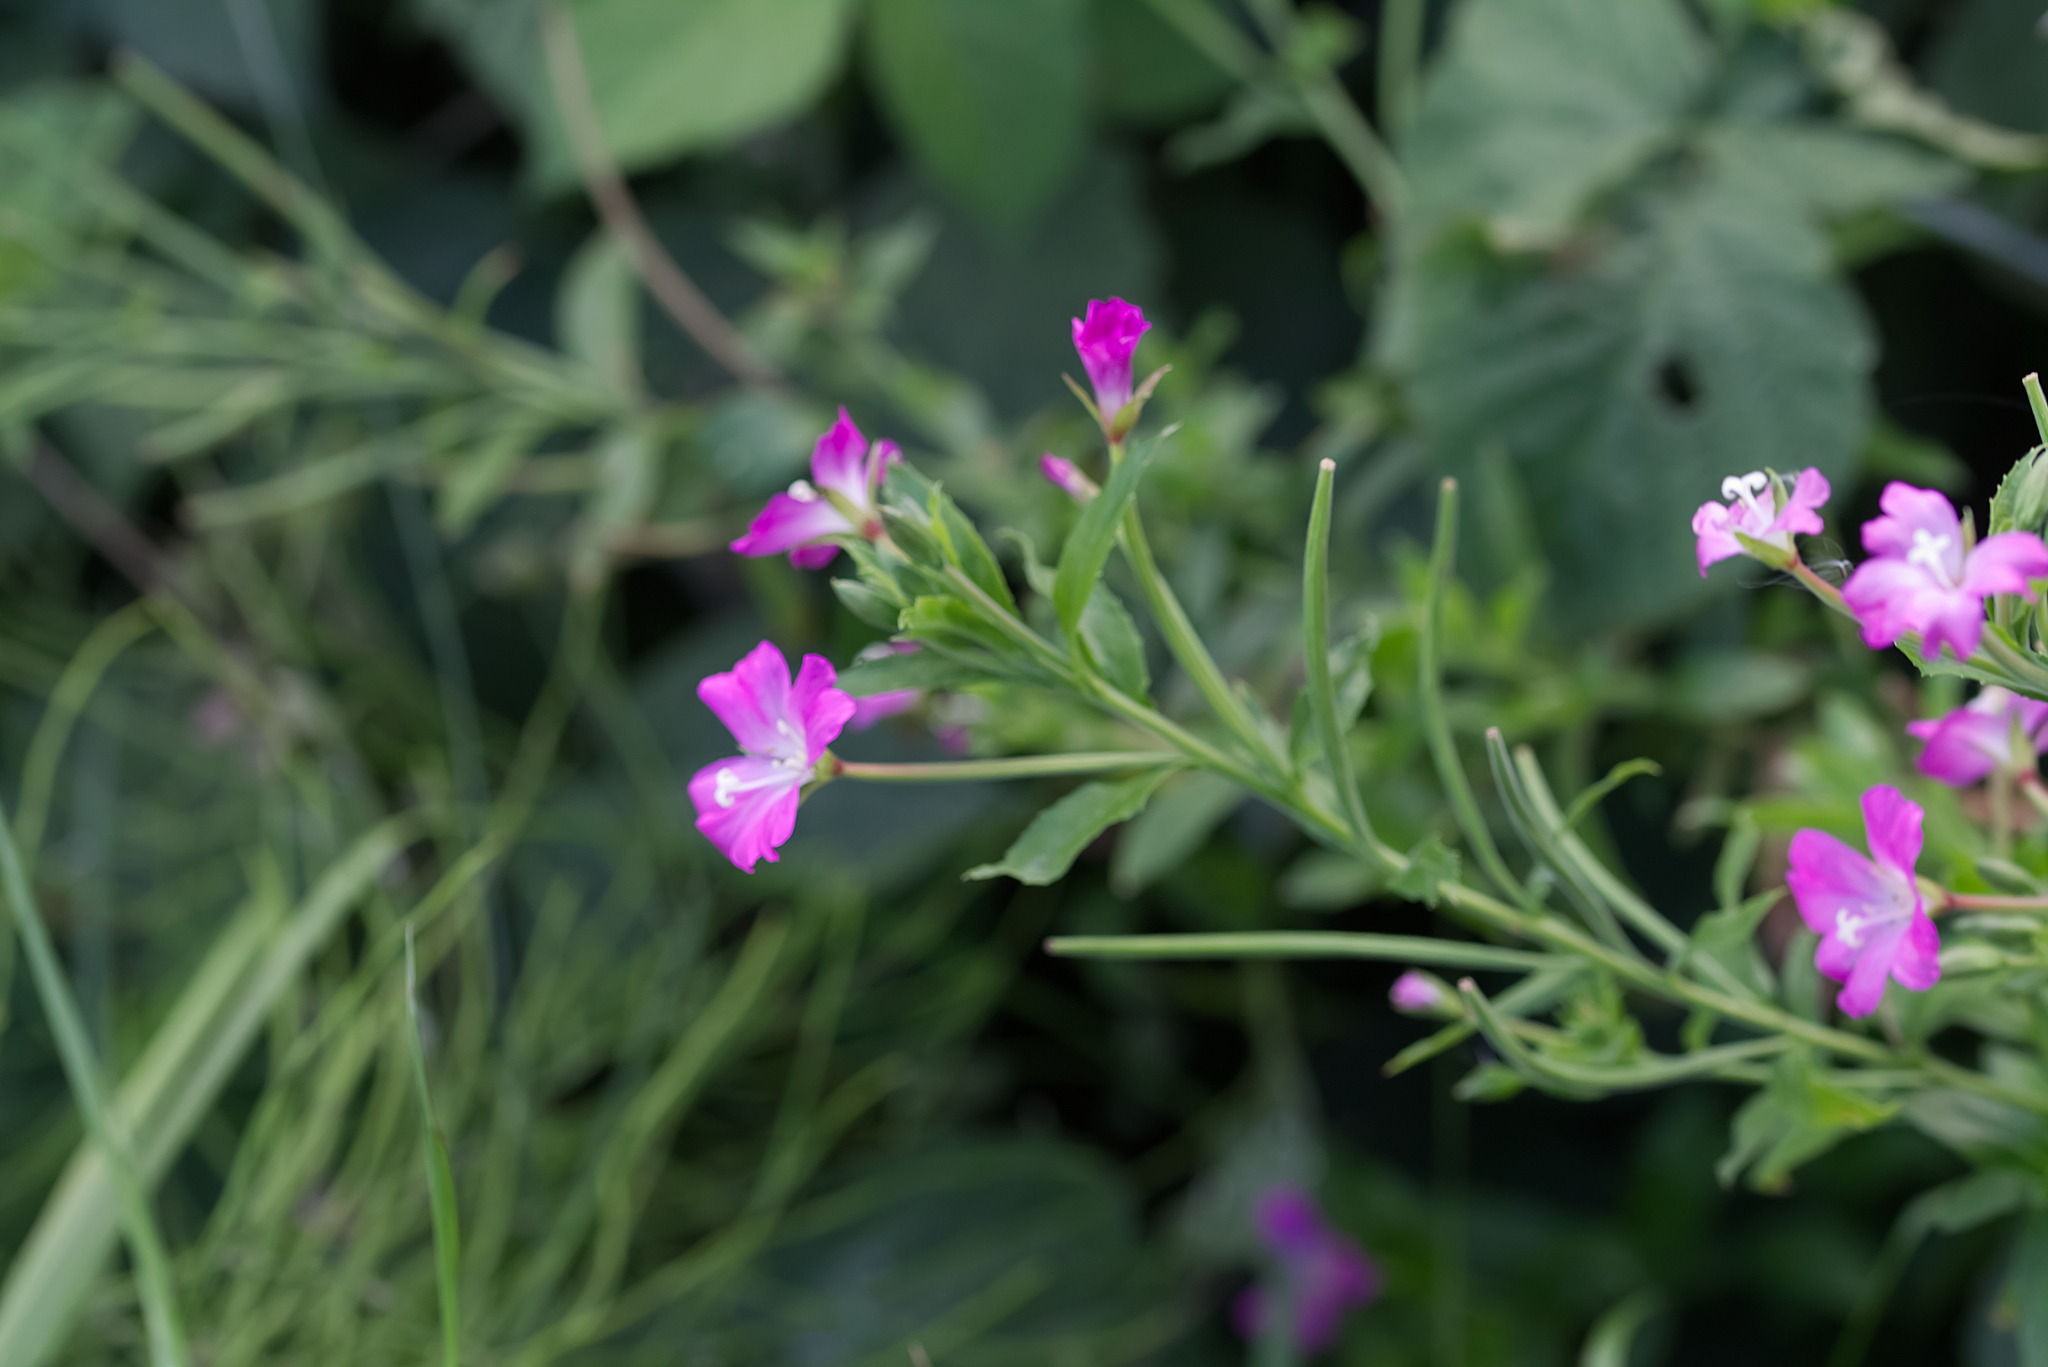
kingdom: Plantae
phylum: Tracheophyta
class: Magnoliopsida
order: Myrtales
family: Onagraceae
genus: Epilobium
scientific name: Epilobium hirsutum
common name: Great willowherb
